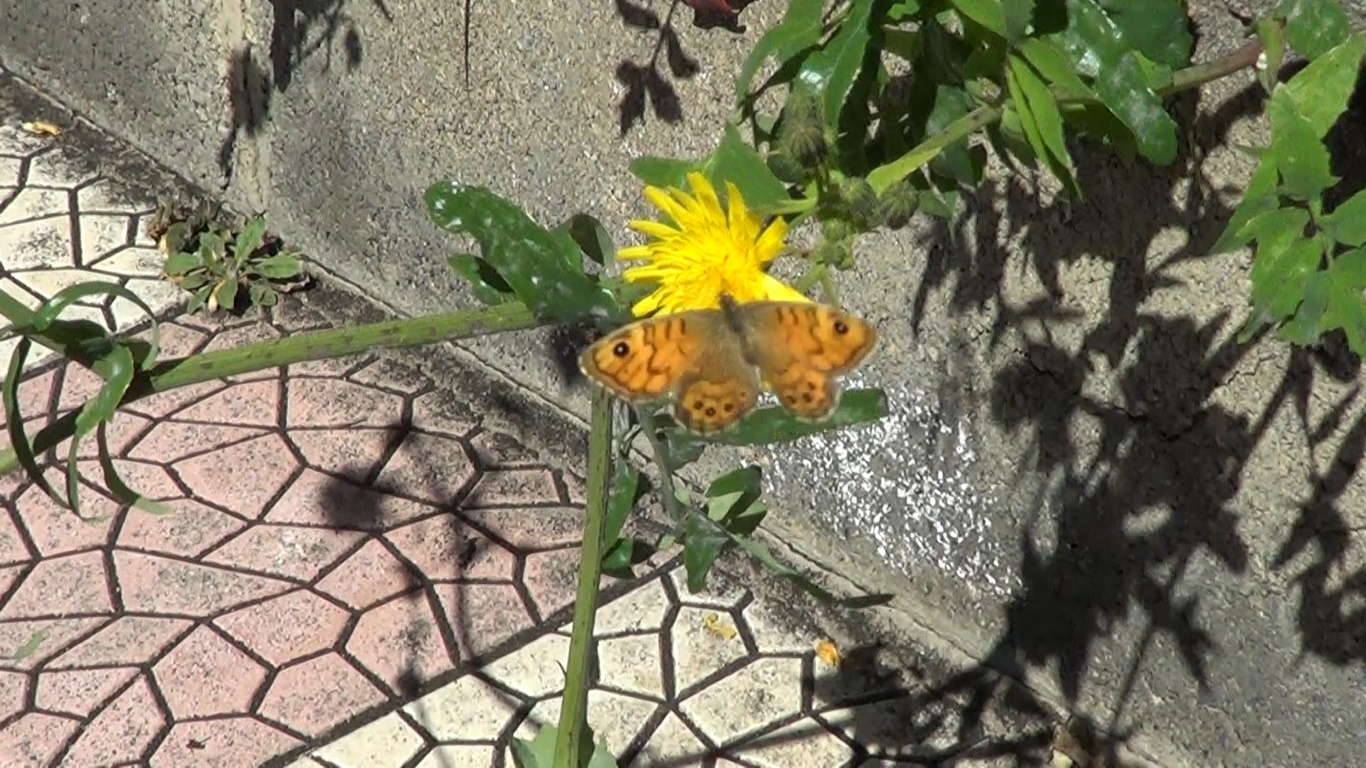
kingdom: Animalia
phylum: Arthropoda
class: Insecta
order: Lepidoptera
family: Nymphalidae
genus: Pararge
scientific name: Pararge Lasiommata megera
